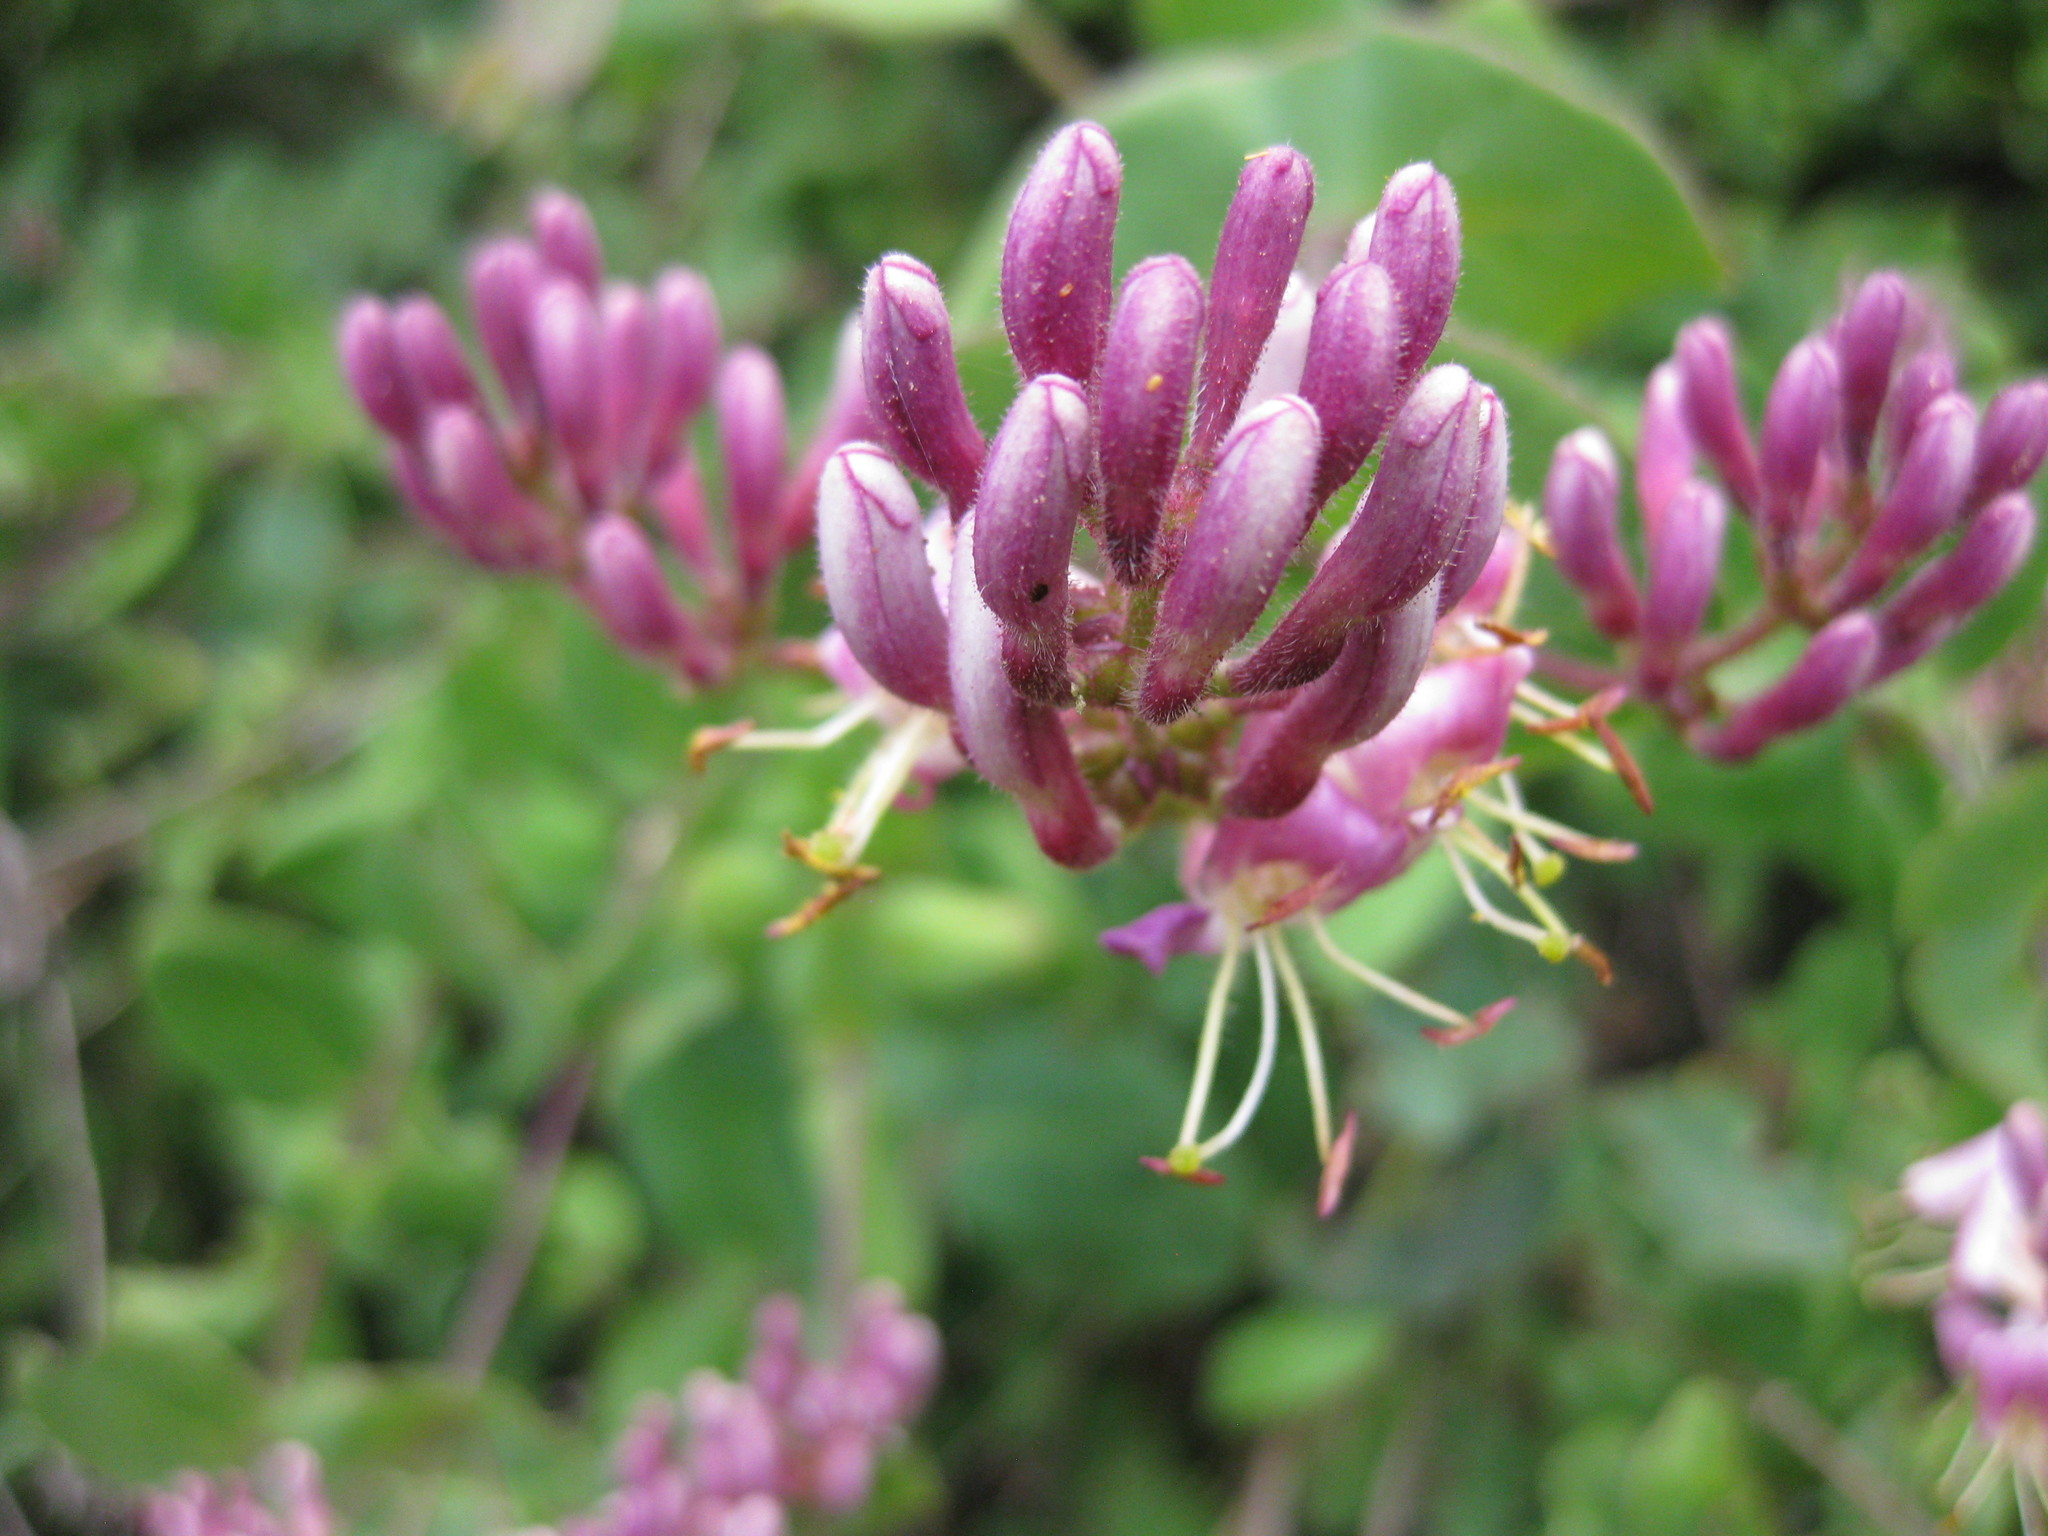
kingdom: Plantae
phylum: Tracheophyta
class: Magnoliopsida
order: Dipsacales
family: Caprifoliaceae
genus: Lonicera
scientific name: Lonicera hispidula
